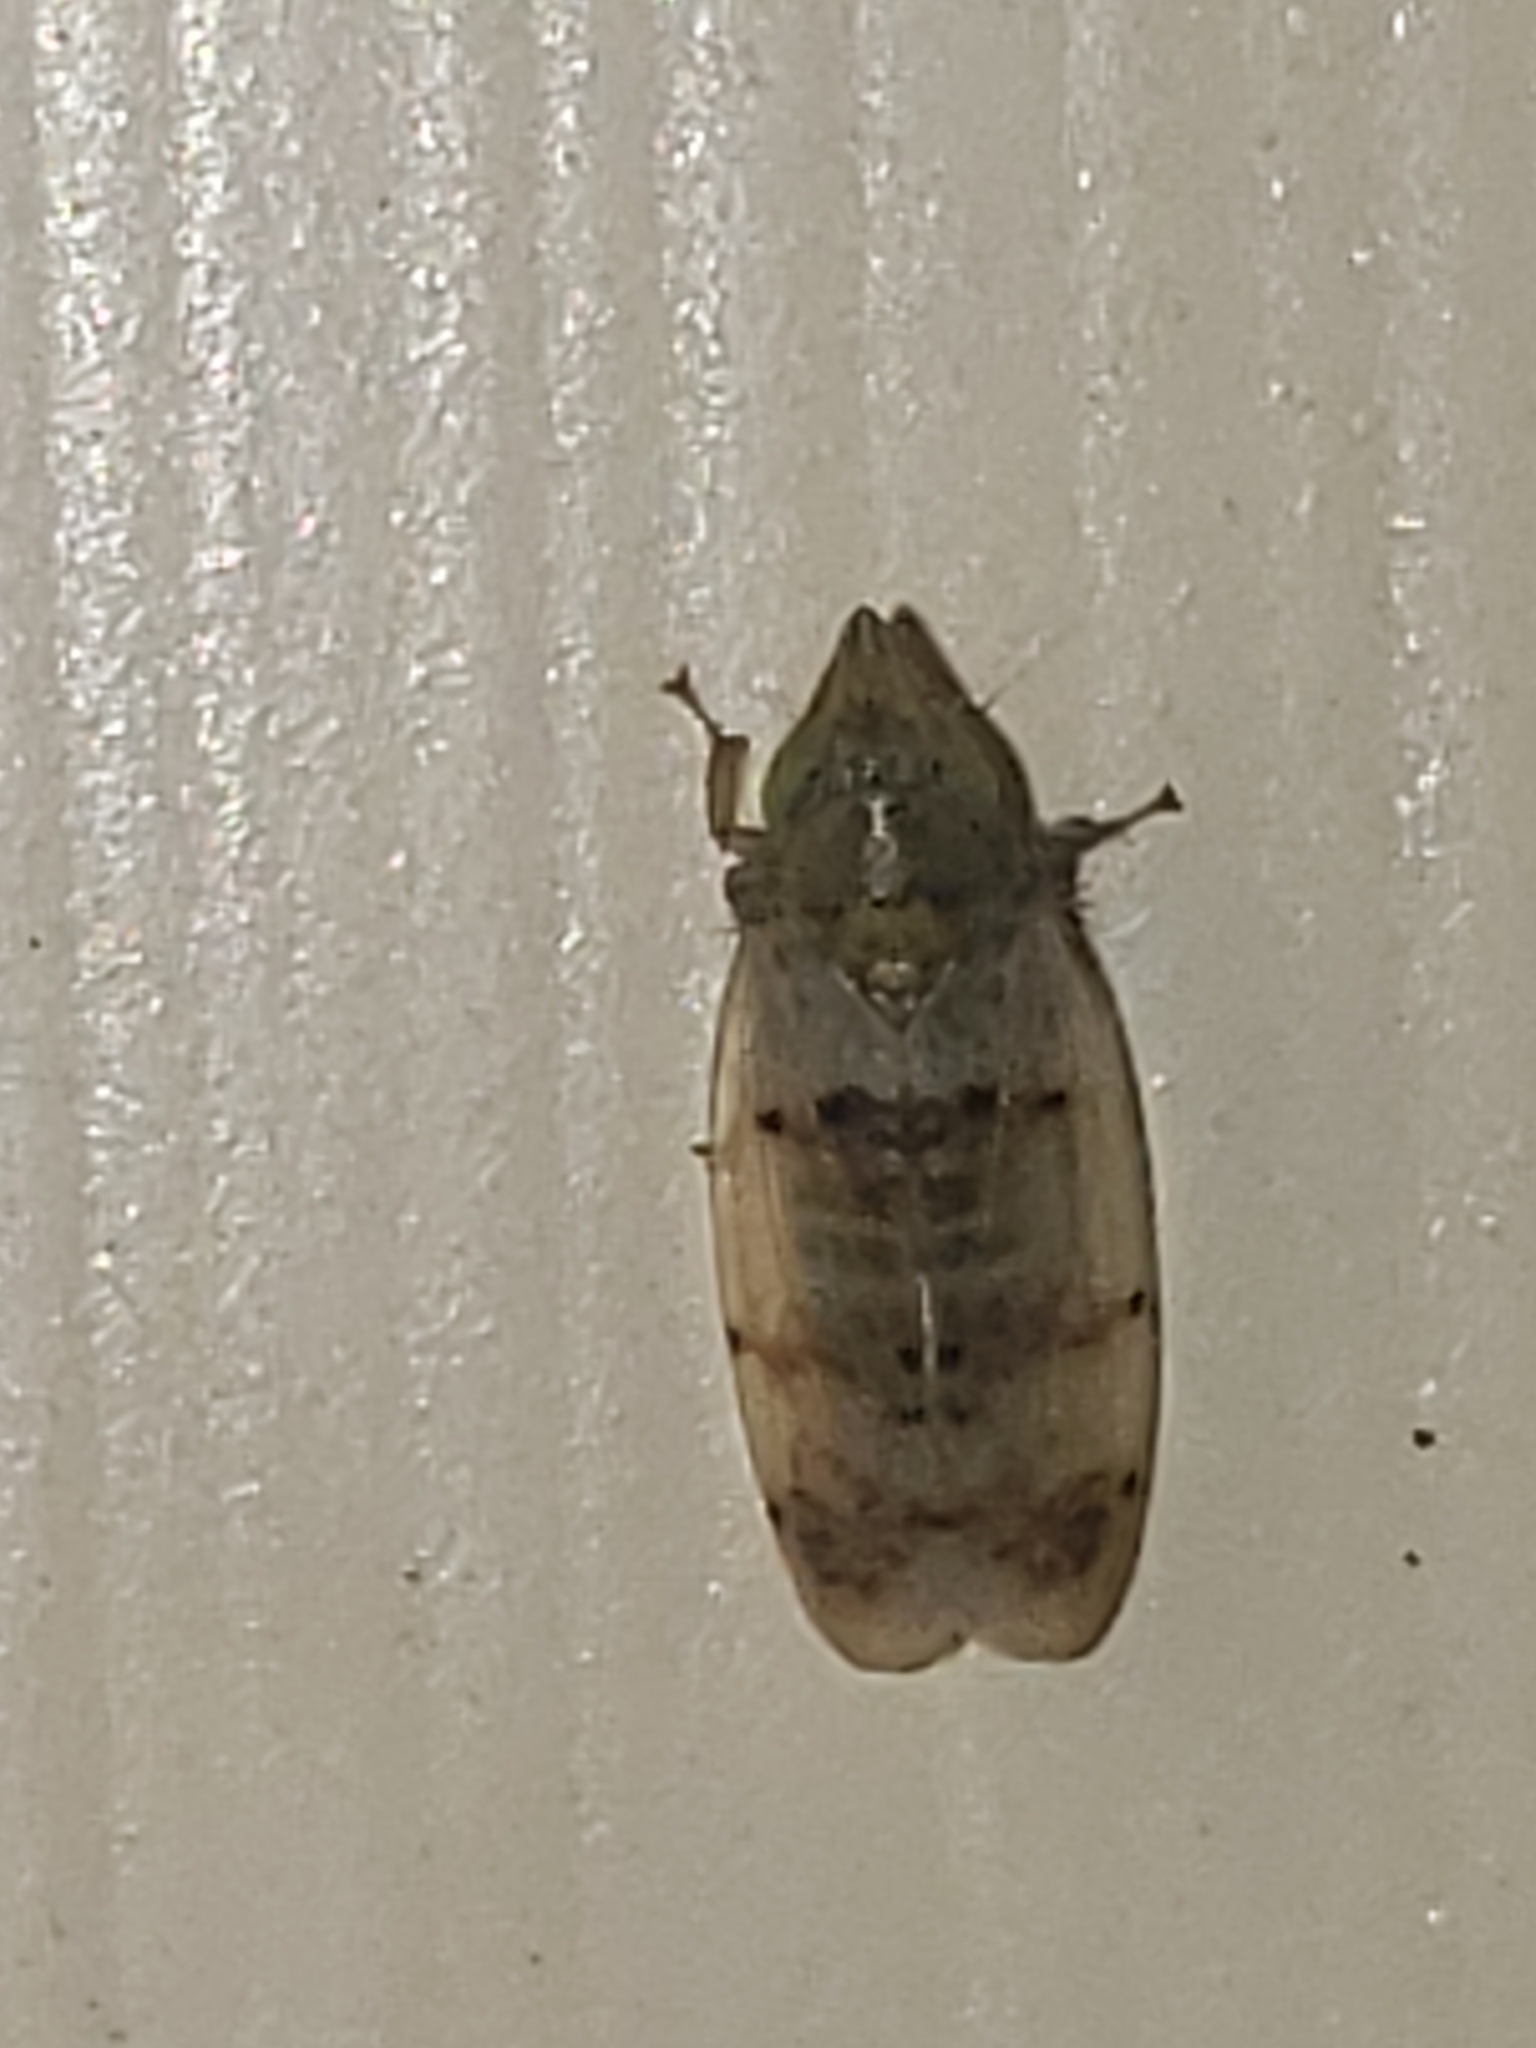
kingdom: Animalia
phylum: Arthropoda
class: Insecta
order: Hemiptera
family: Cicadellidae
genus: Japananus
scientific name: Japananus hyalinus
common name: The japanese maple leafhopper
